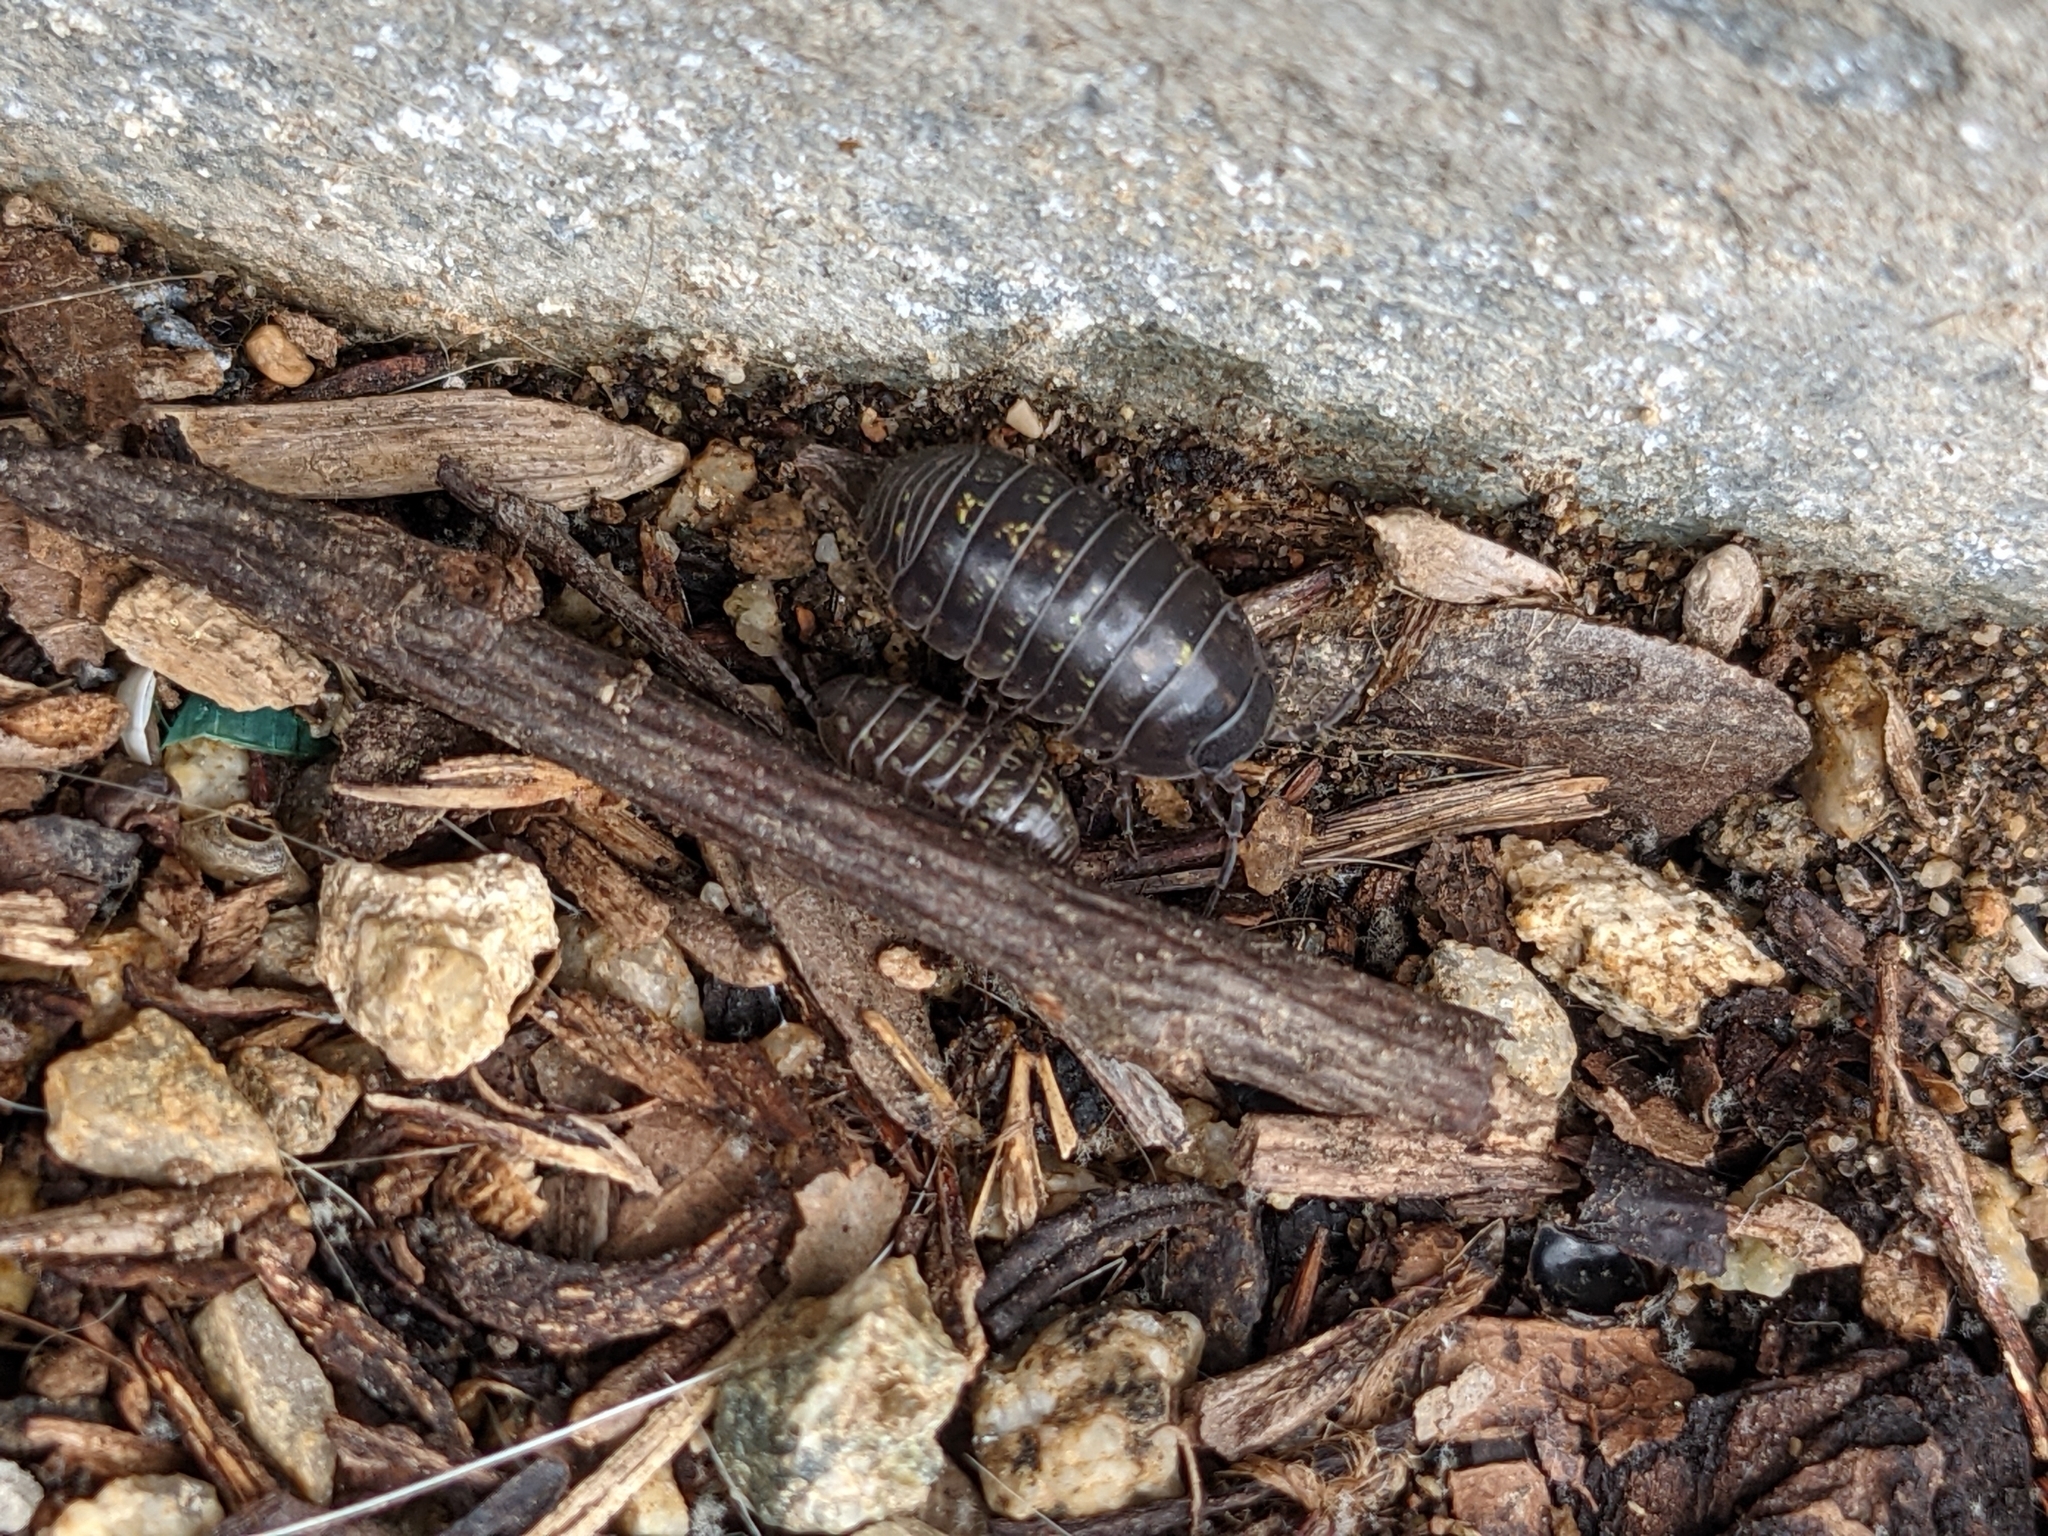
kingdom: Animalia
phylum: Arthropoda
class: Malacostraca
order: Isopoda
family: Armadillidiidae
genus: Armadillidium
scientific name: Armadillidium vulgare
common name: Common pill woodlouse
